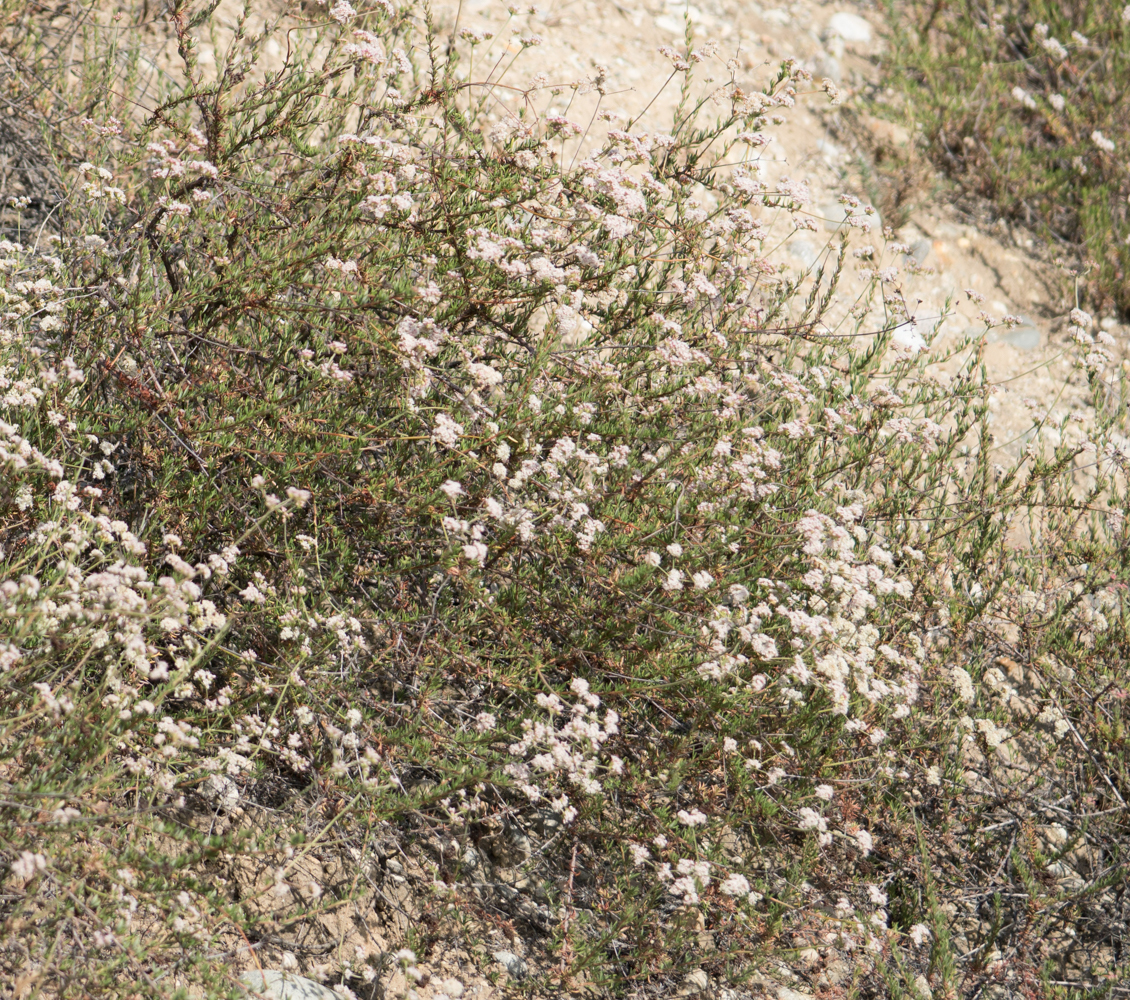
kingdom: Plantae
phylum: Tracheophyta
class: Magnoliopsida
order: Caryophyllales
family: Polygonaceae
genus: Eriogonum
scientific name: Eriogonum fasciculatum
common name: California wild buckwheat
